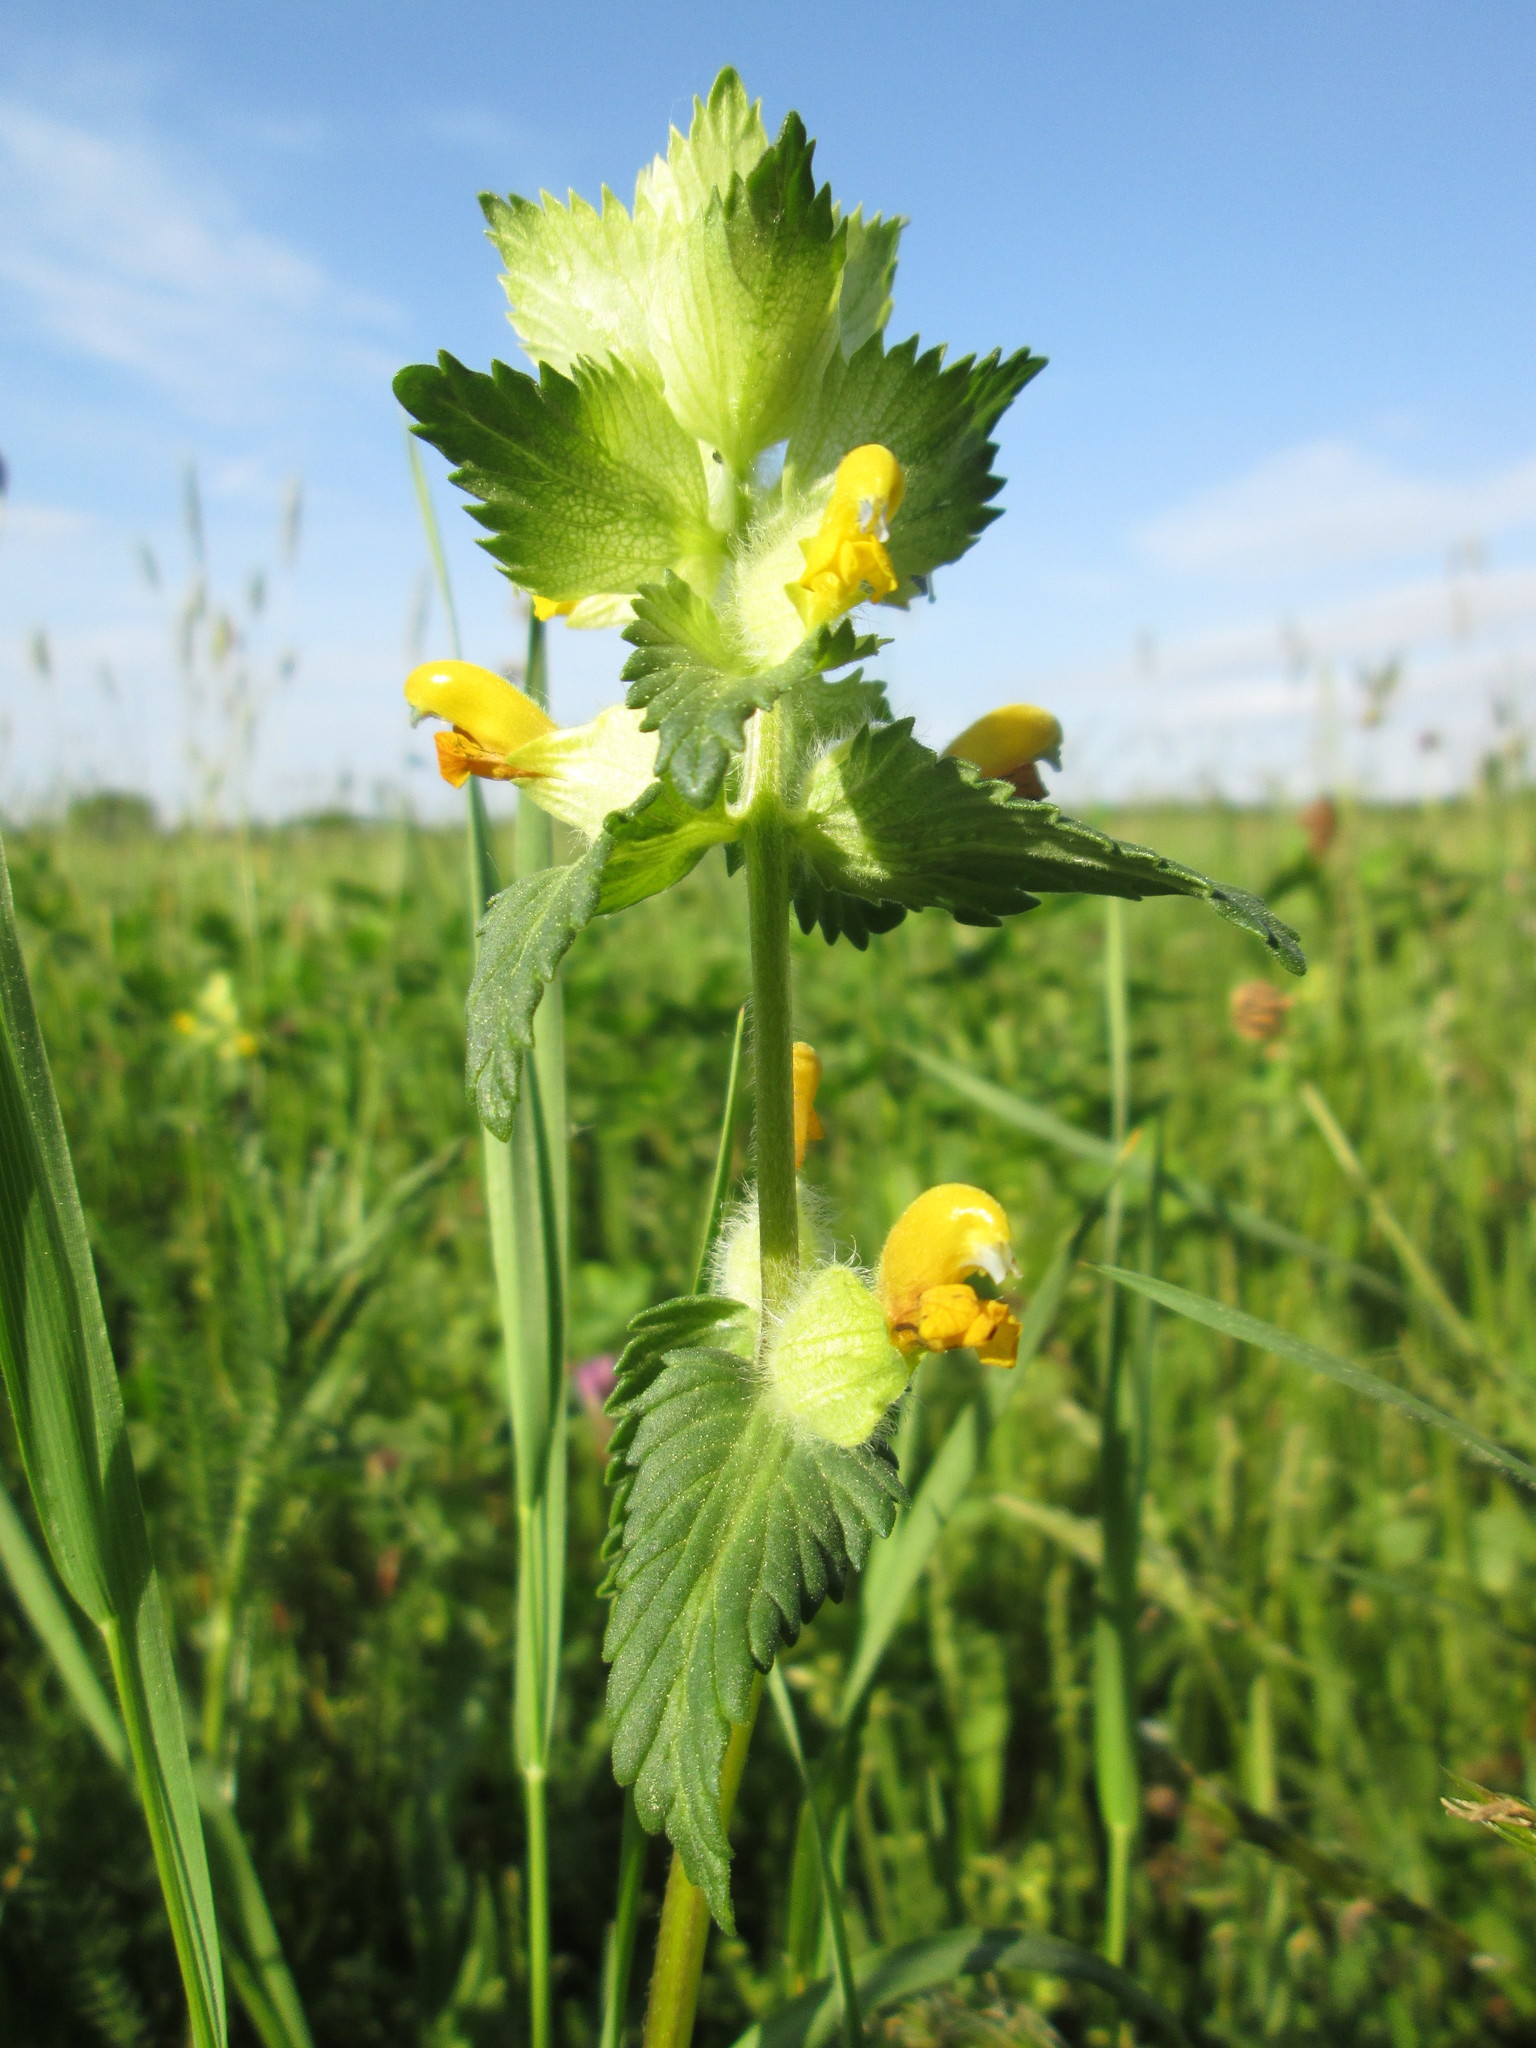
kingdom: Plantae
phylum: Tracheophyta
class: Magnoliopsida
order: Lamiales
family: Orobanchaceae
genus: Rhinanthus
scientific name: Rhinanthus alectorolophus
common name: Greater yellow-rattle
